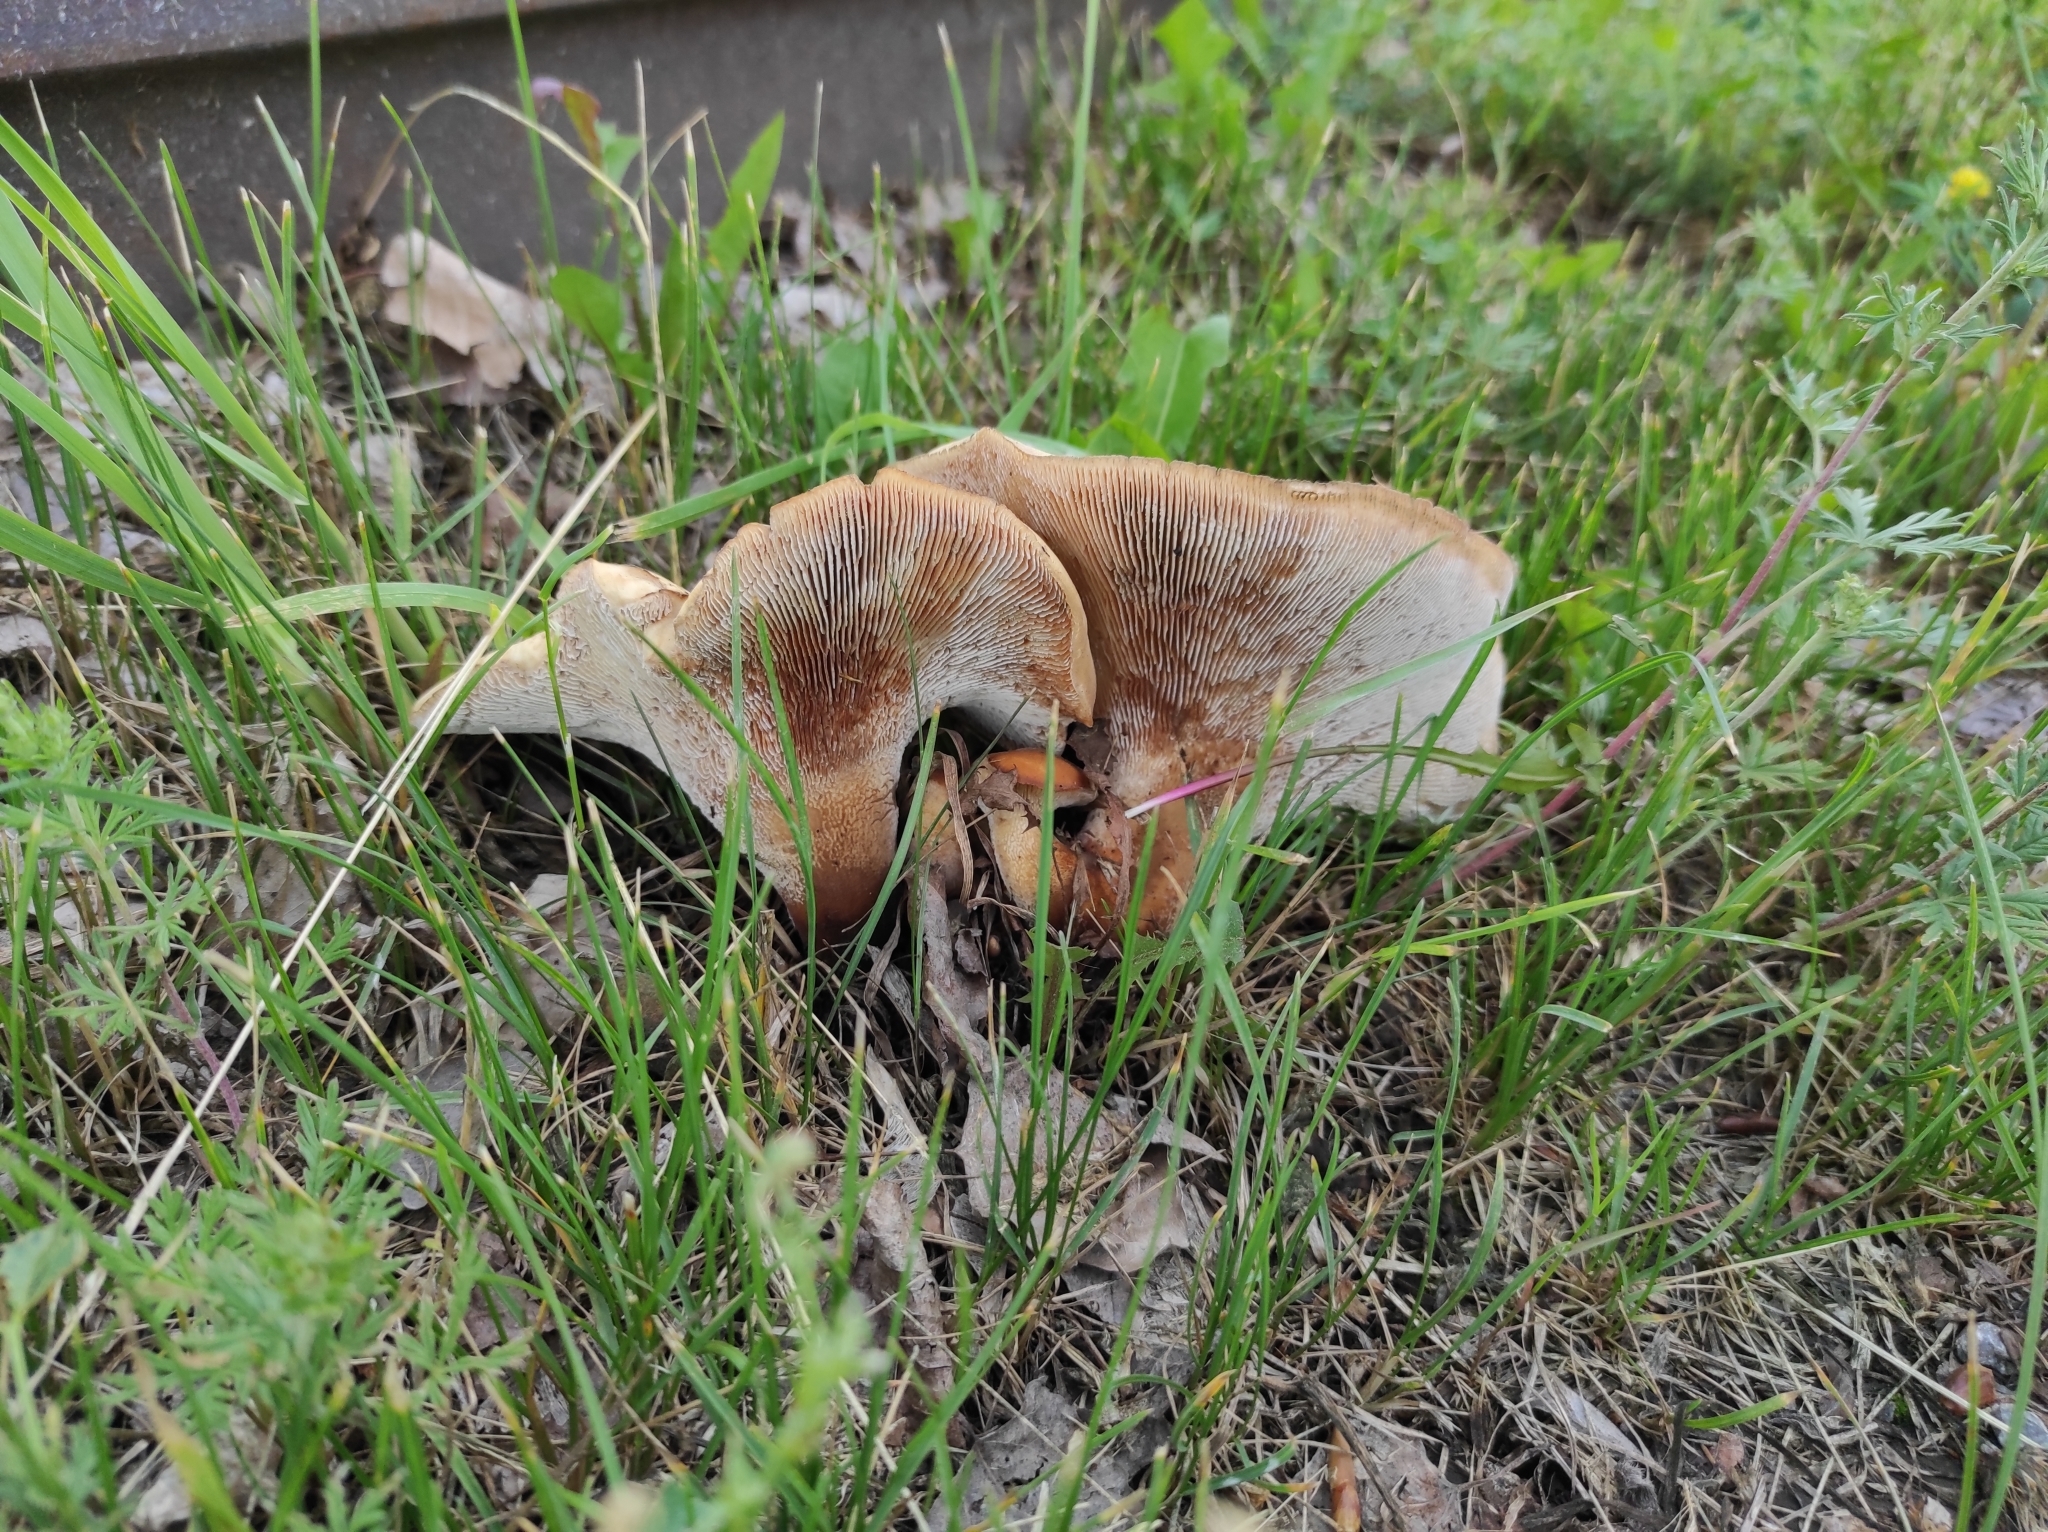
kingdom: Fungi
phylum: Basidiomycota
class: Agaricomycetes
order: Gloeophyllales
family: Gloeophyllaceae
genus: Neolentinus
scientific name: Neolentinus lepideus
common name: Scaly sawgill
